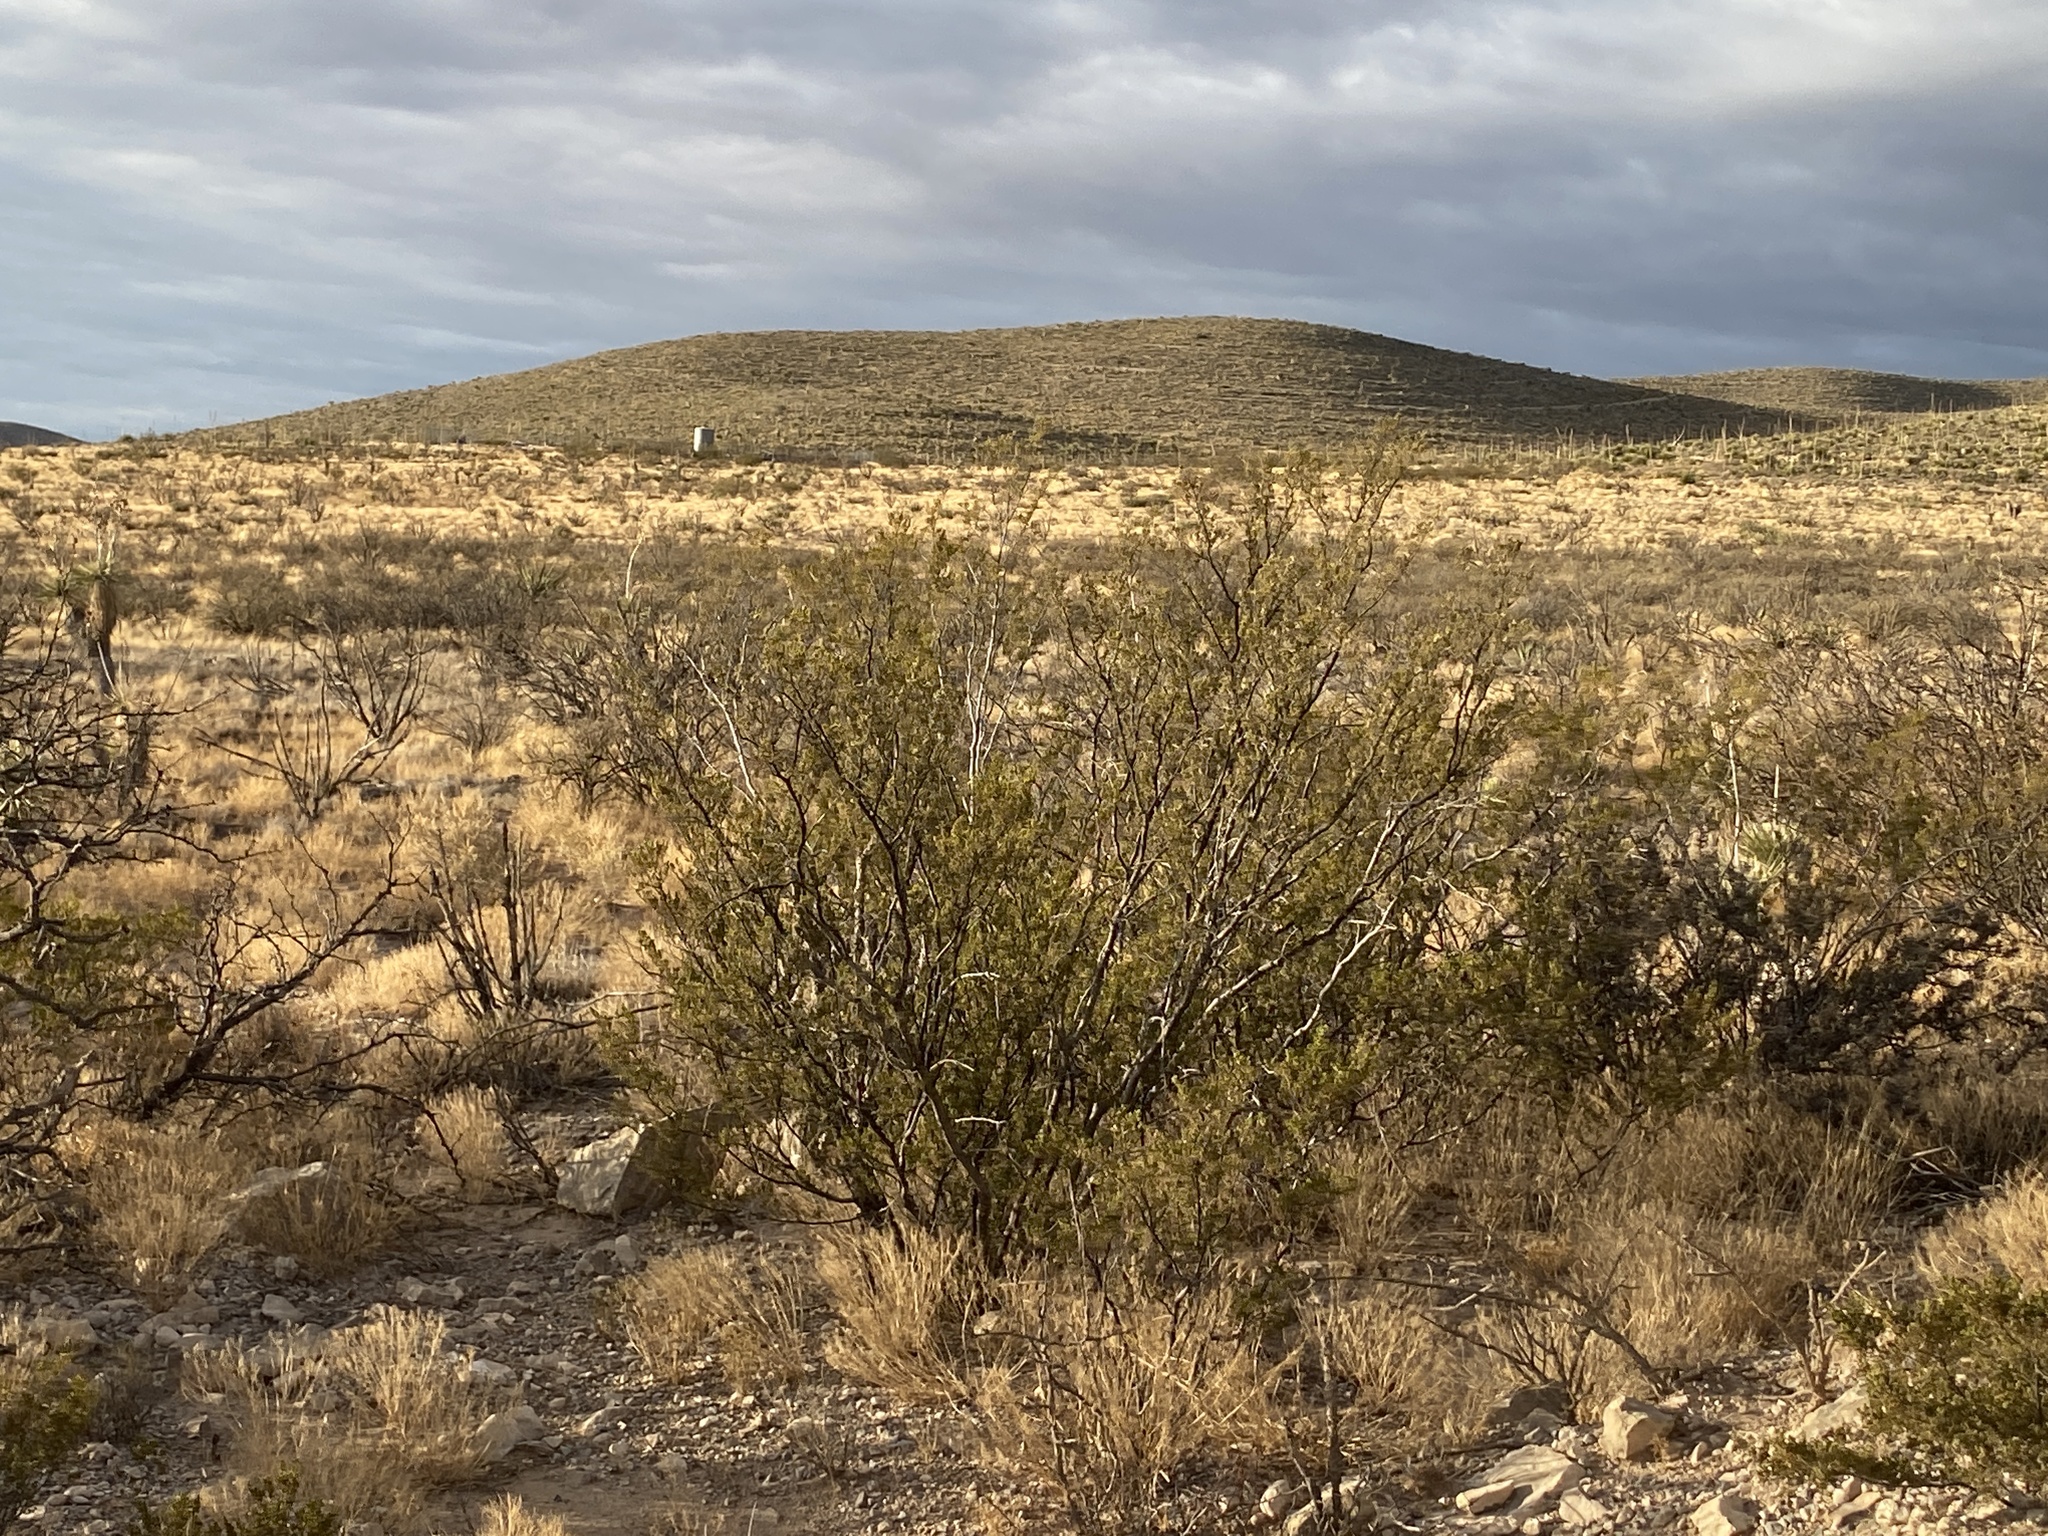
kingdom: Plantae
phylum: Tracheophyta
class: Magnoliopsida
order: Zygophyllales
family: Zygophyllaceae
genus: Larrea
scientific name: Larrea tridentata
